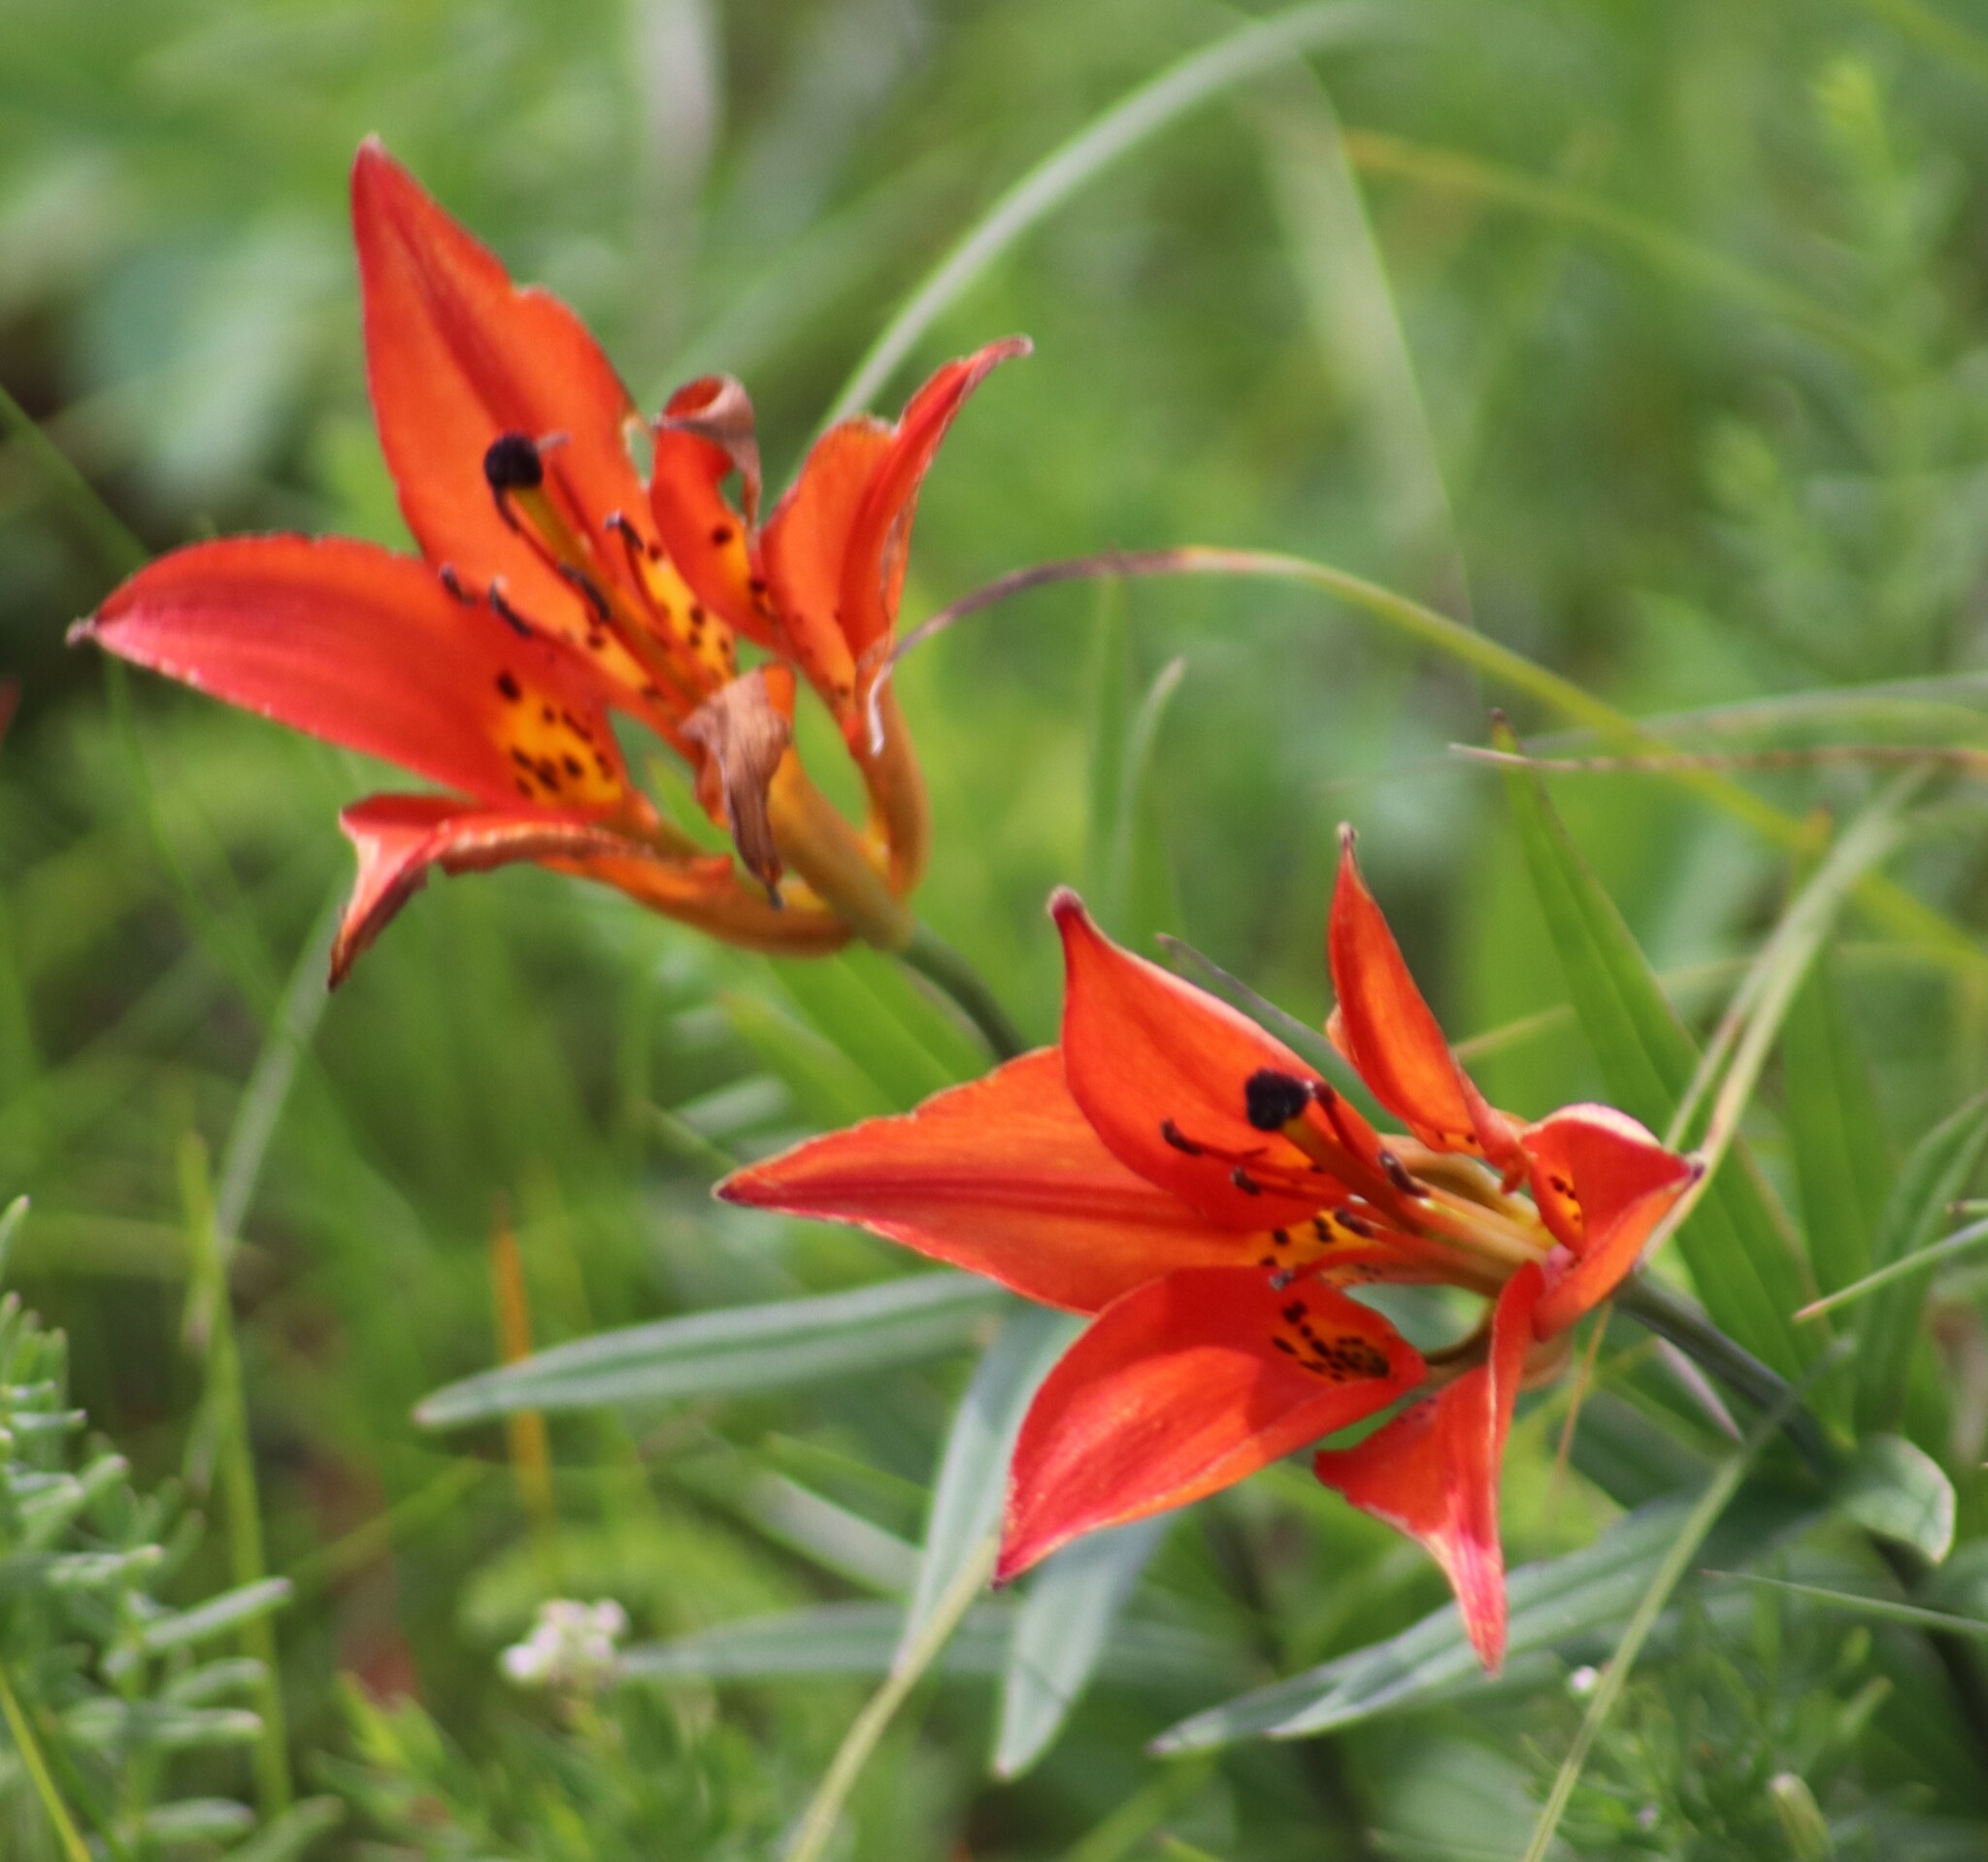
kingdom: Plantae
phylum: Tracheophyta
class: Liliopsida
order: Liliales
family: Liliaceae
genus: Lilium
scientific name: Lilium philadelphicum
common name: Red lily
